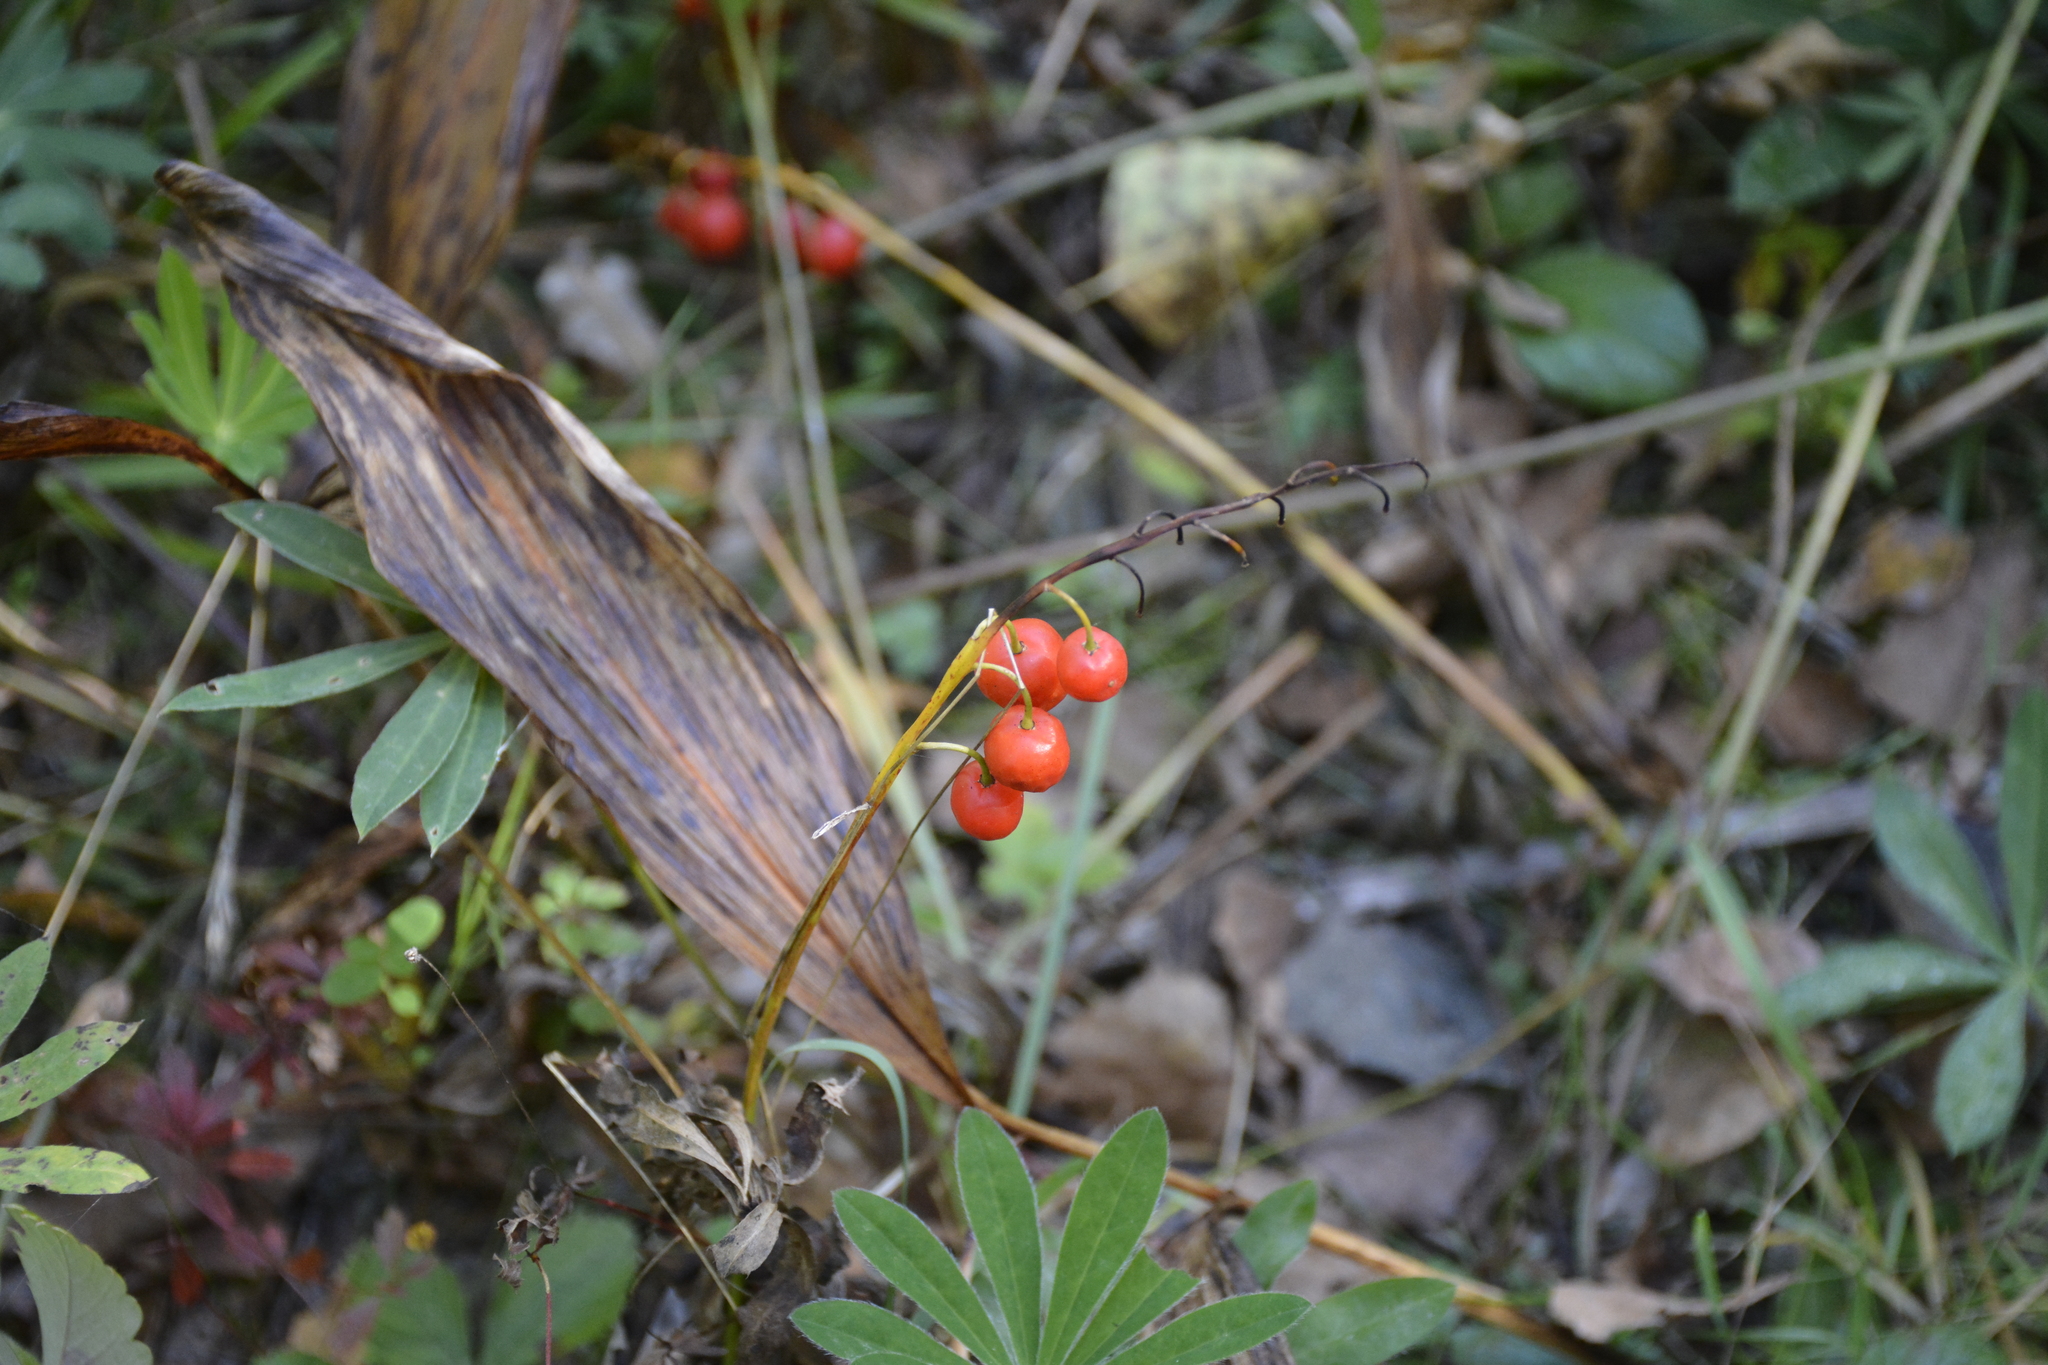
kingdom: Plantae
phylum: Tracheophyta
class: Liliopsida
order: Asparagales
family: Asparagaceae
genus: Convallaria
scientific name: Convallaria majalis
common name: Lily-of-the-valley
